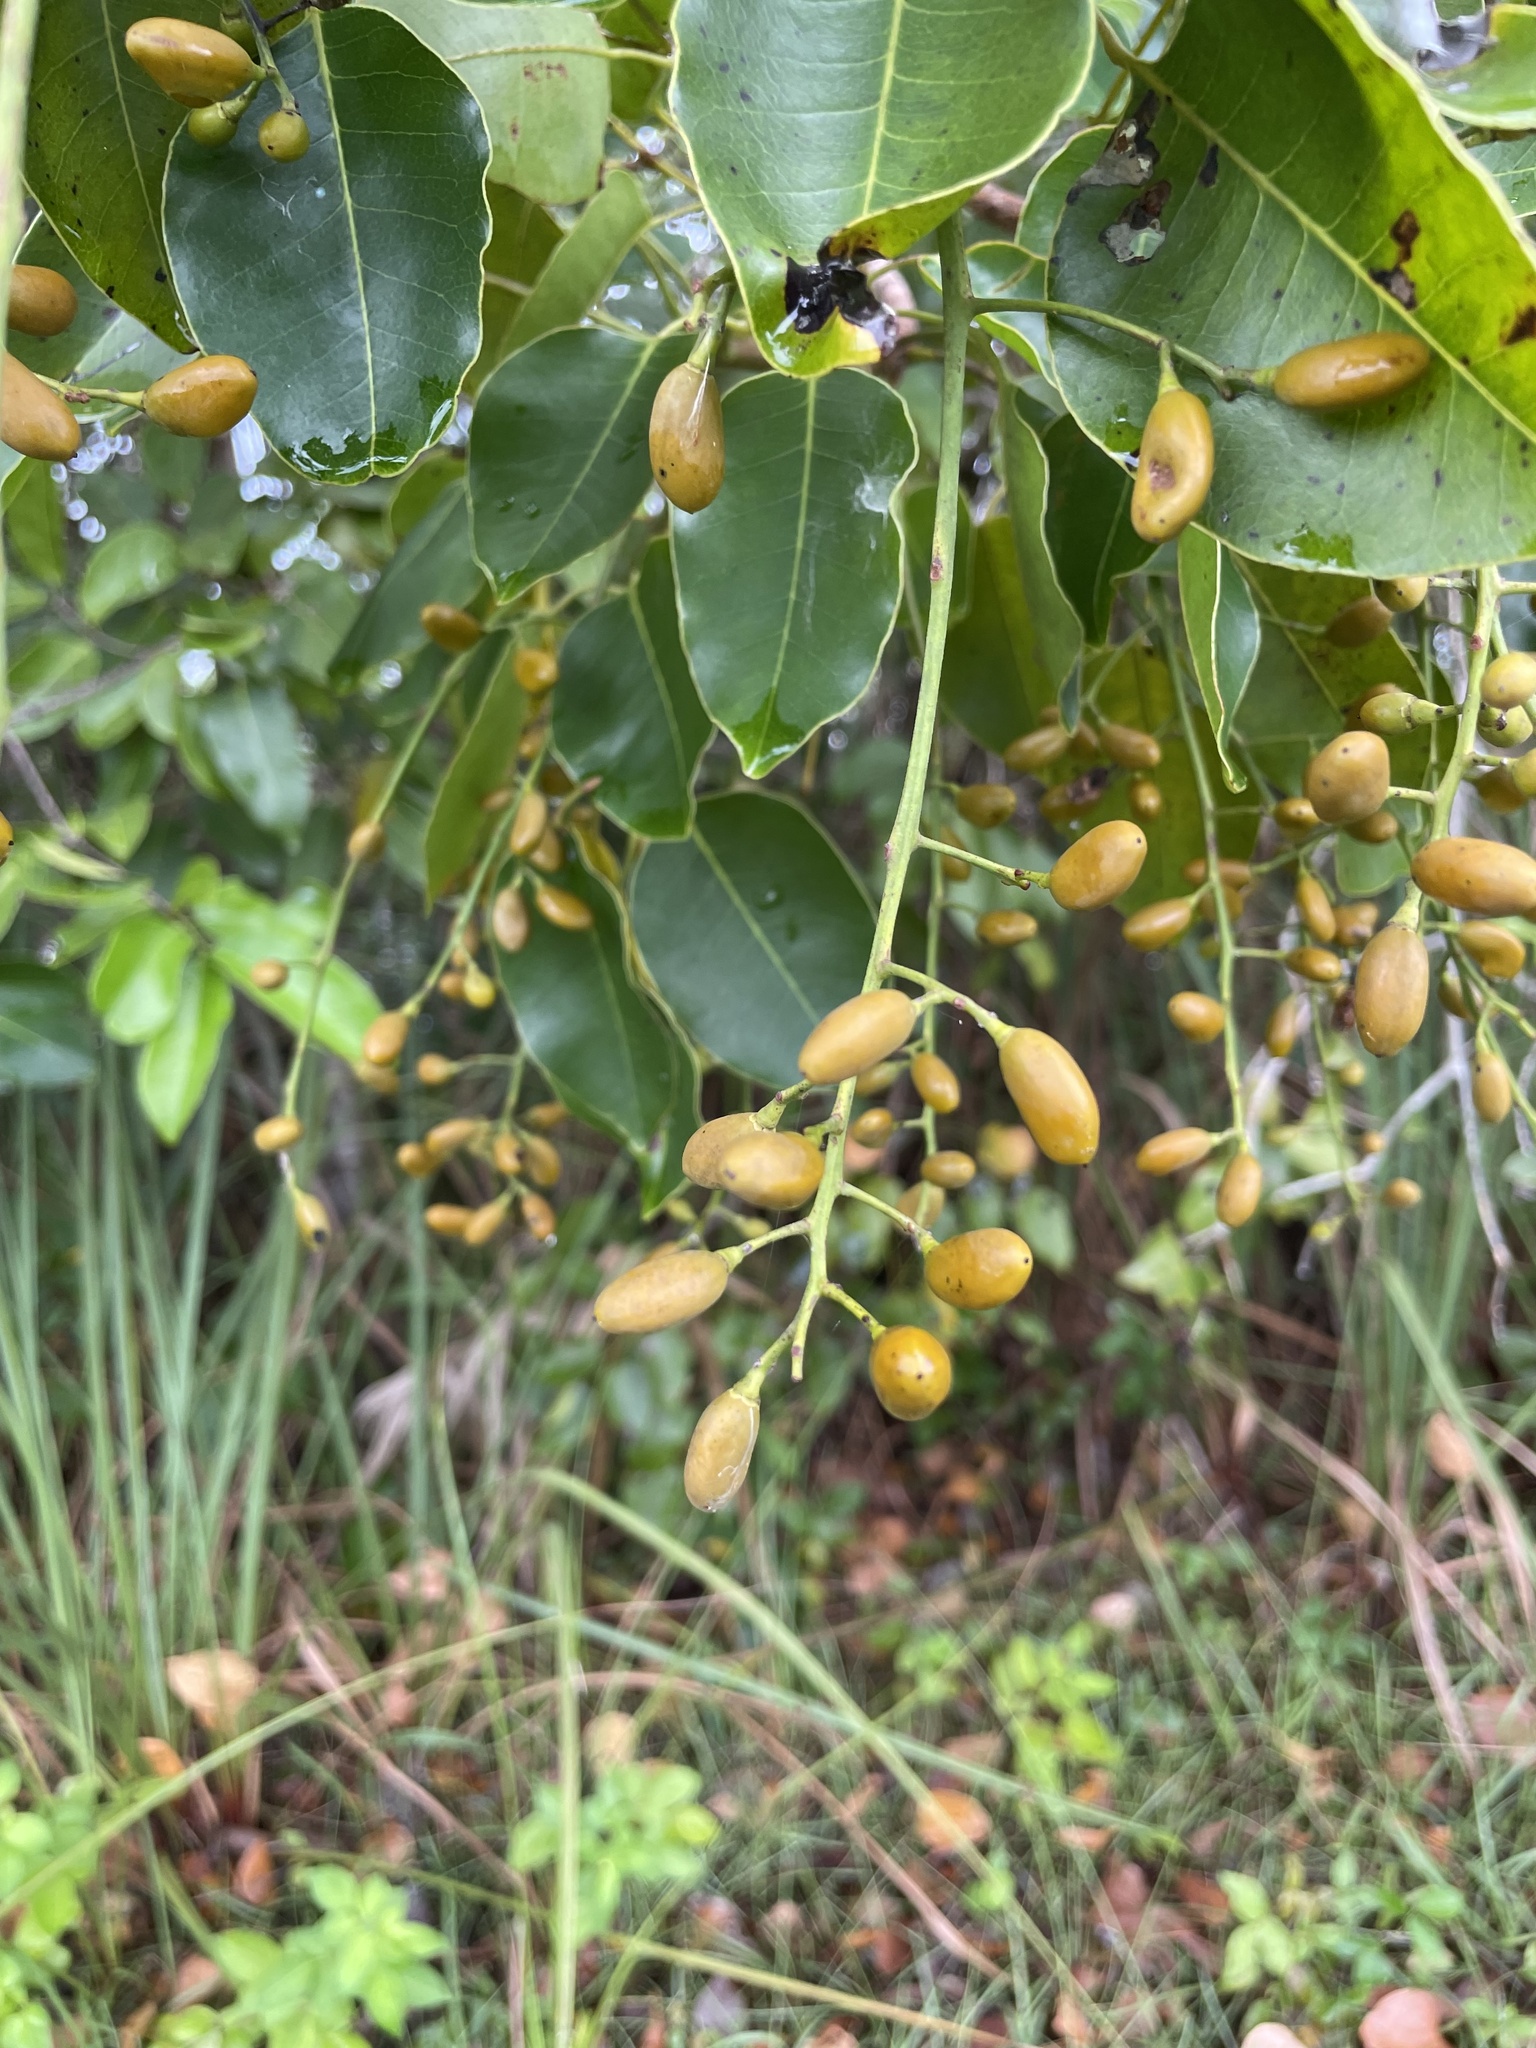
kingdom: Plantae
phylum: Tracheophyta
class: Magnoliopsida
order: Sapindales
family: Anacardiaceae
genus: Metopium
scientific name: Metopium toxiferum
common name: Florida poisontree
